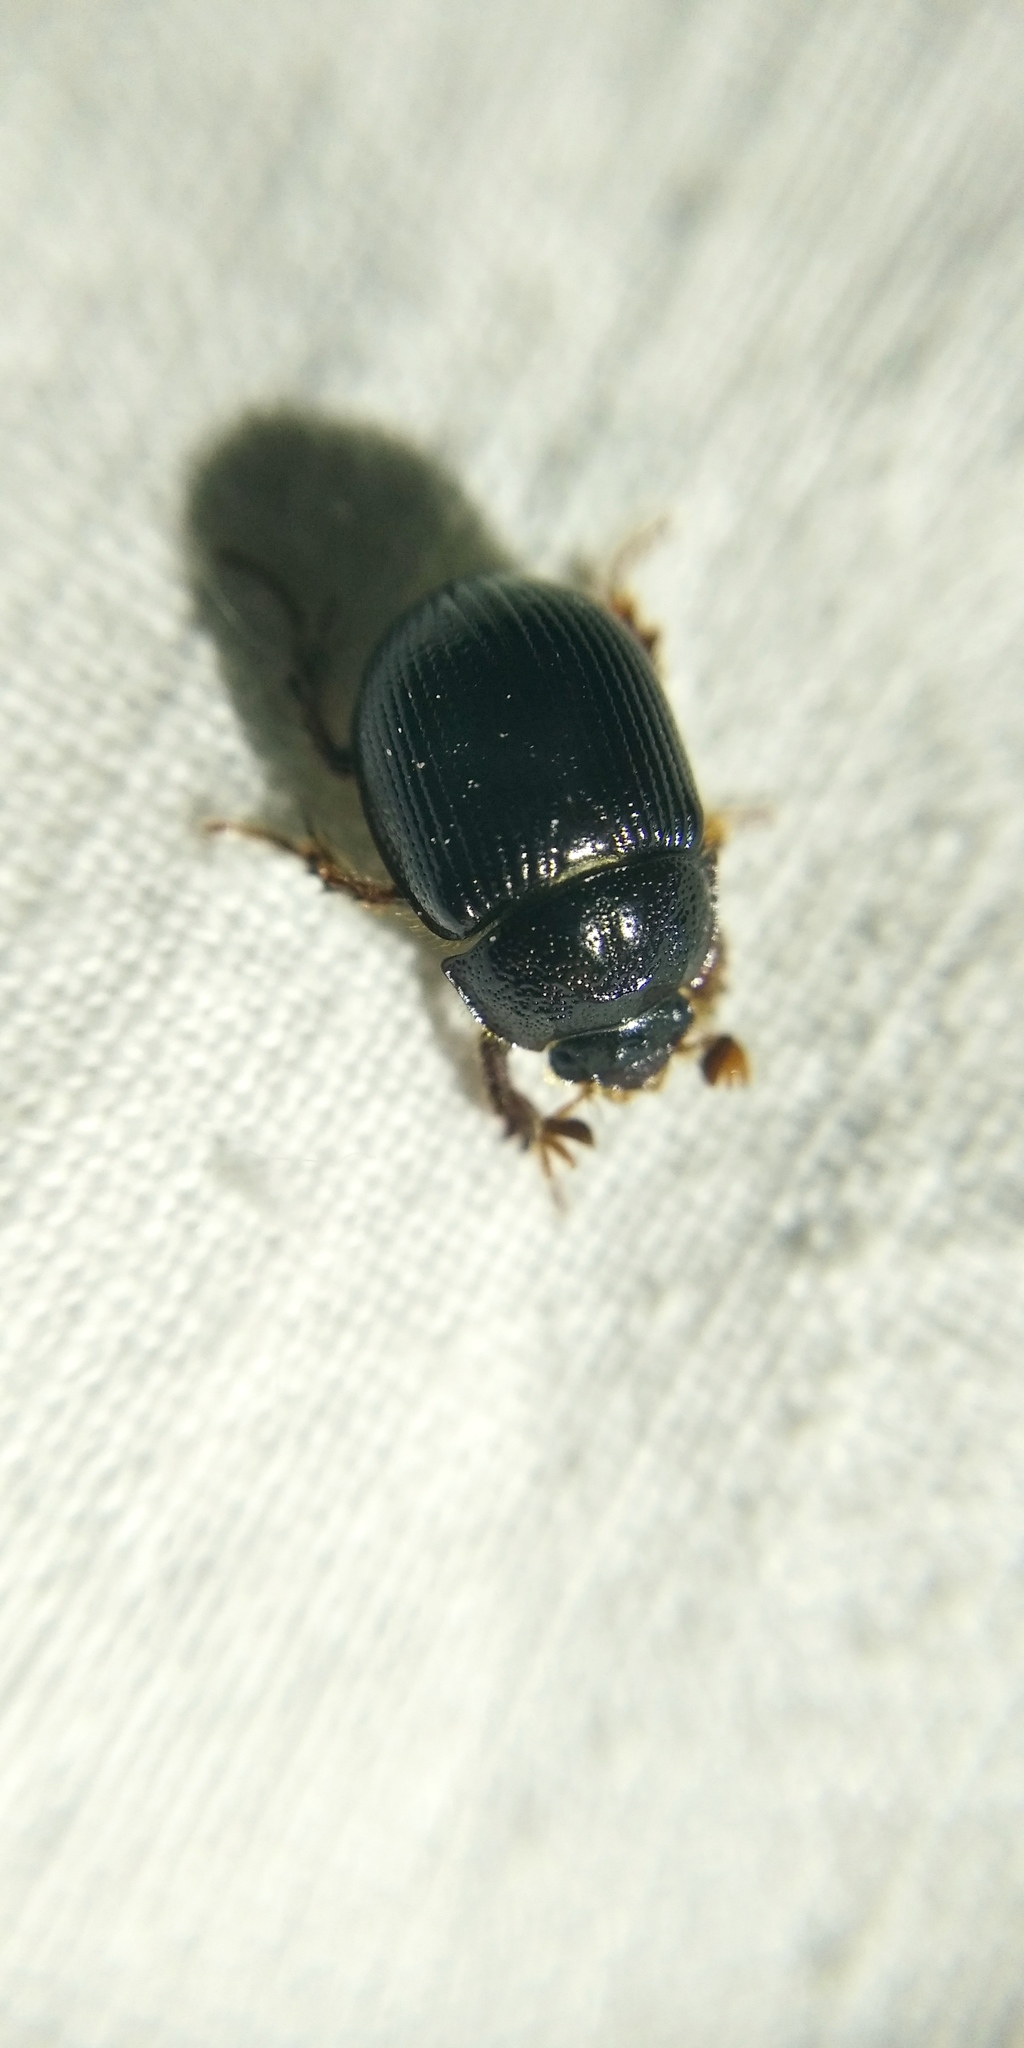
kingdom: Animalia
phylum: Arthropoda
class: Insecta
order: Coleoptera
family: Geotrupidae
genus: Odonteus
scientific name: Odonteus armiger
